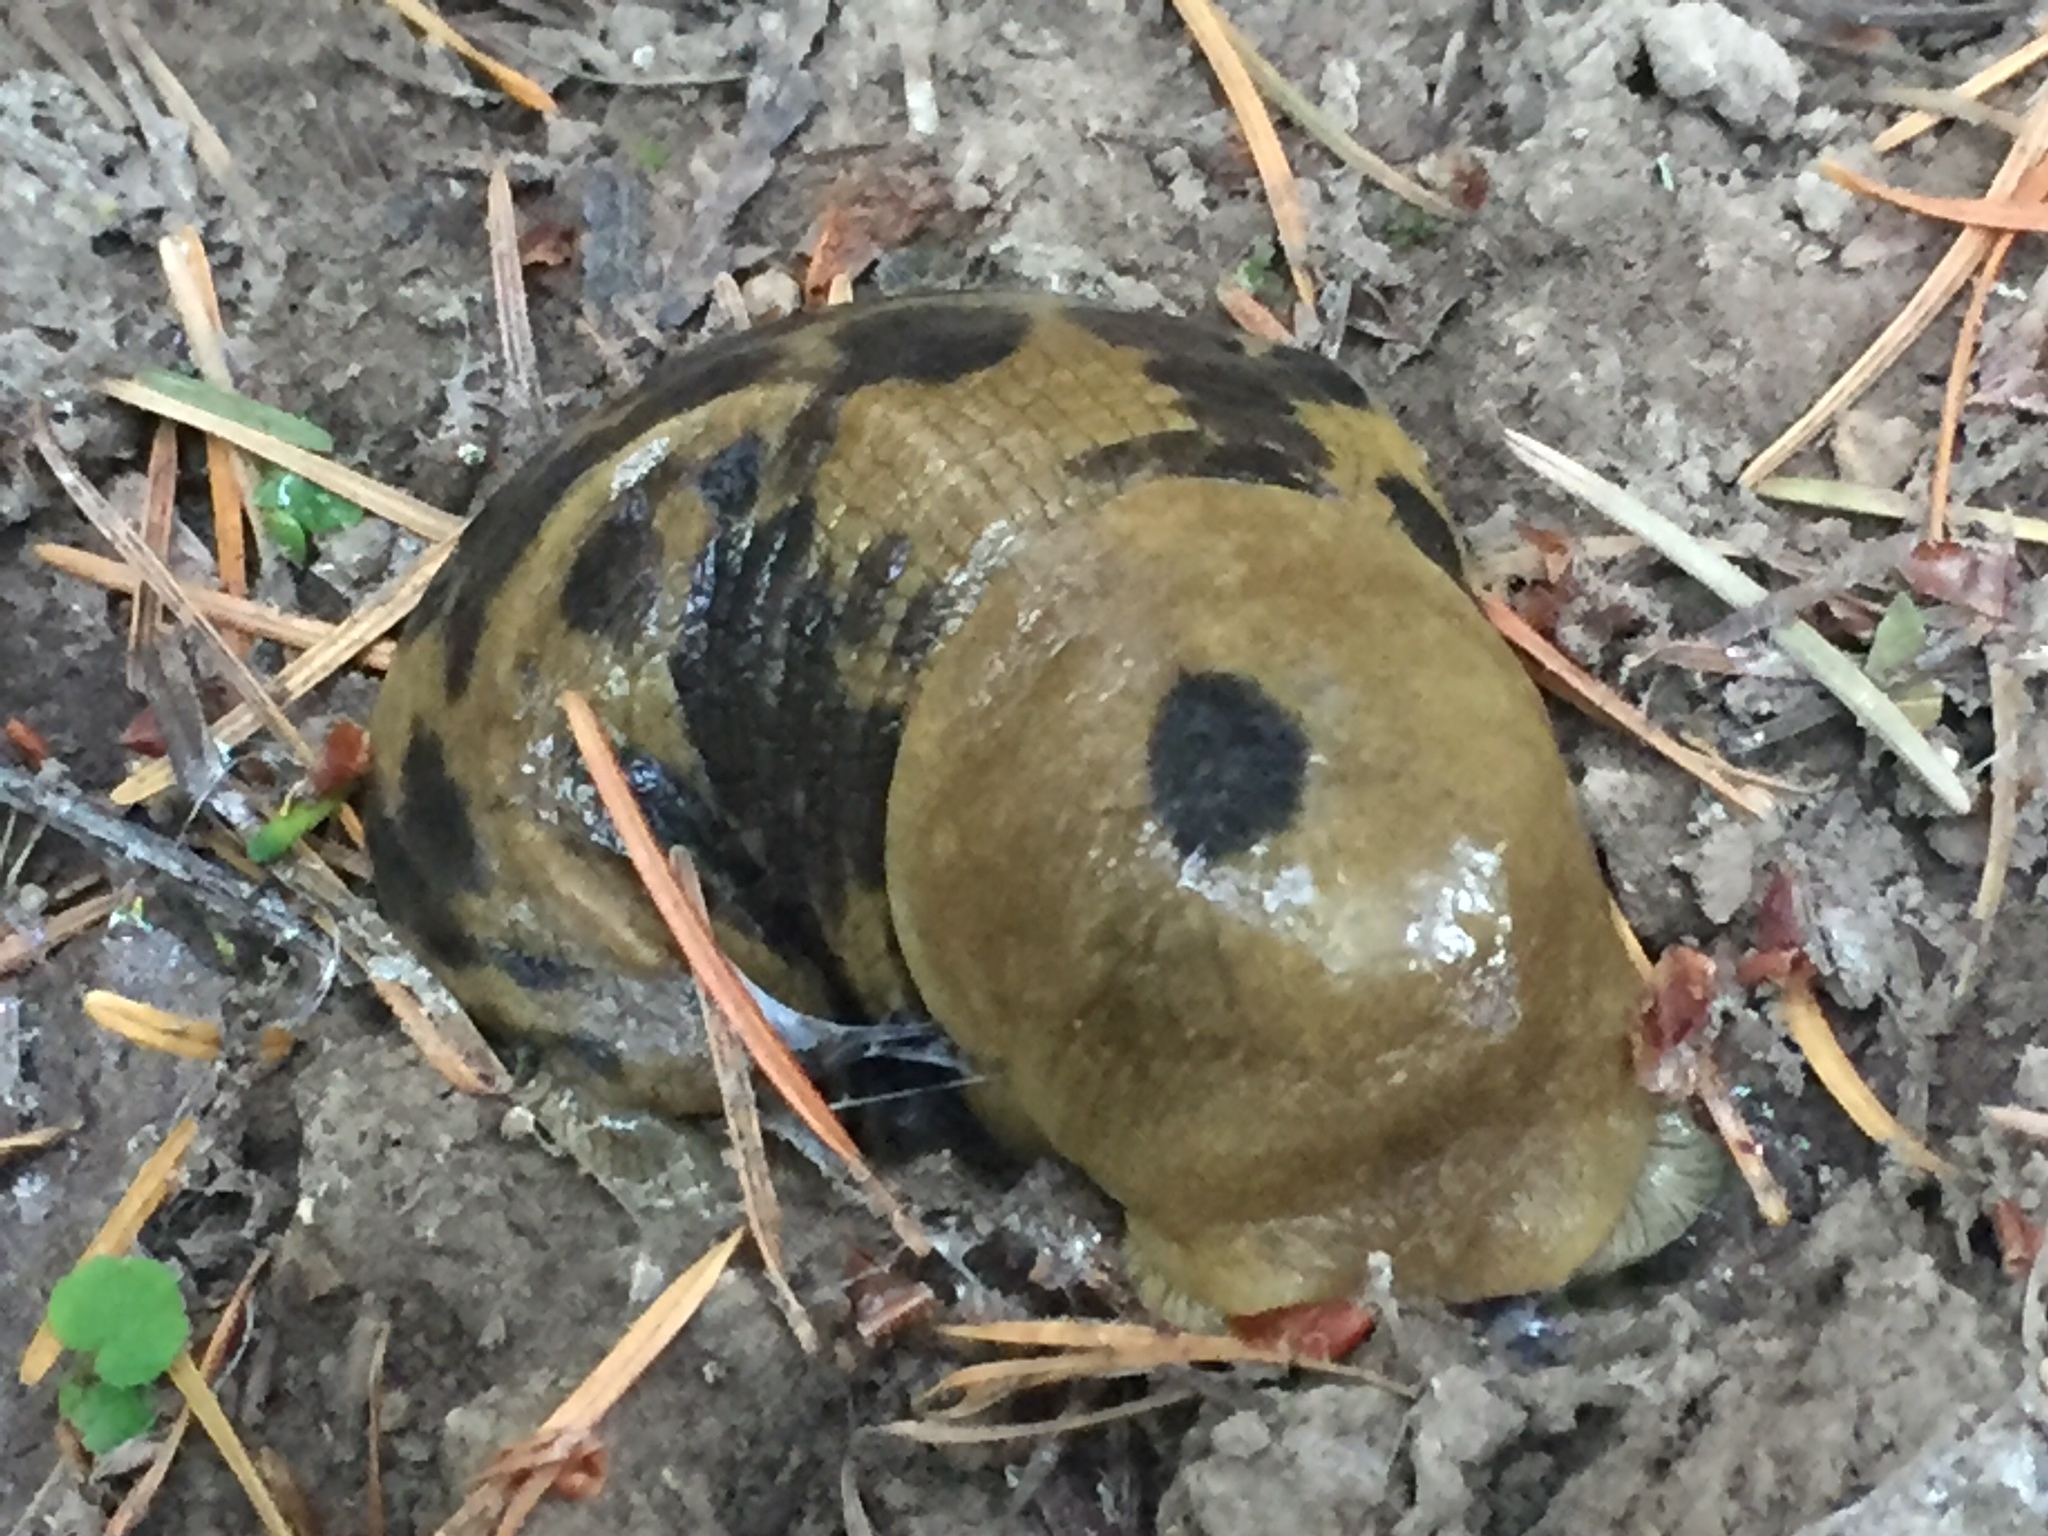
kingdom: Animalia
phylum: Mollusca
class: Gastropoda
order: Stylommatophora
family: Ariolimacidae
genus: Ariolimax
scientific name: Ariolimax columbianus
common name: Pacific banana slug
